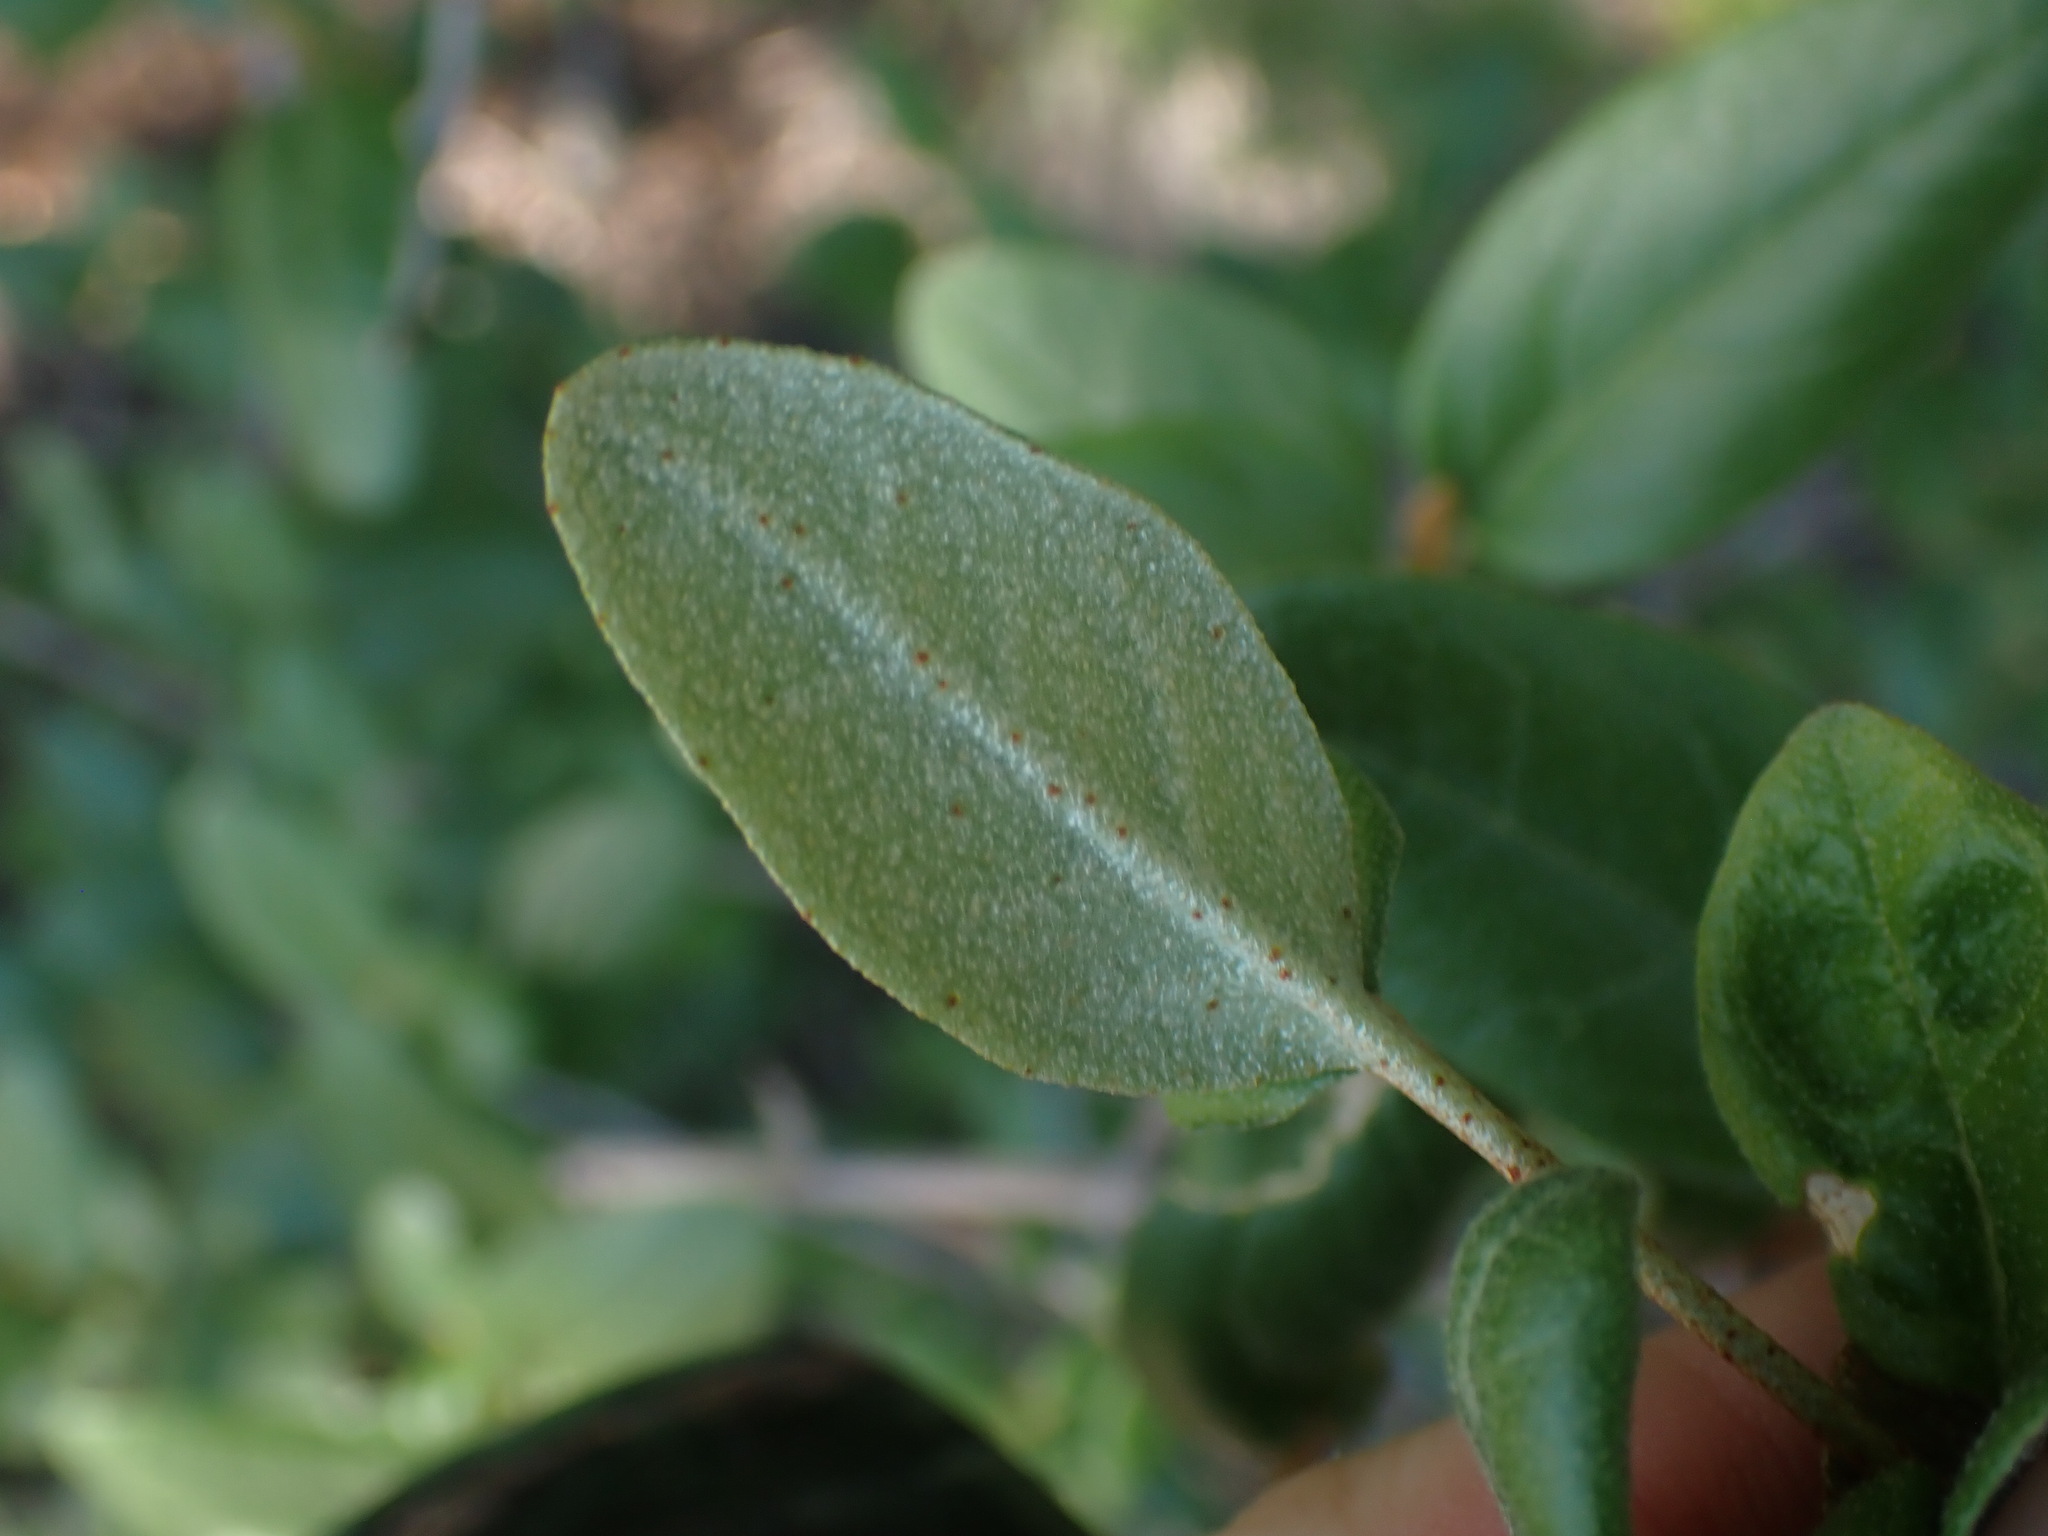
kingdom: Plantae
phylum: Tracheophyta
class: Magnoliopsida
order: Rosales
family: Elaeagnaceae
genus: Shepherdia
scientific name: Shepherdia canadensis
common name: Soapberry
